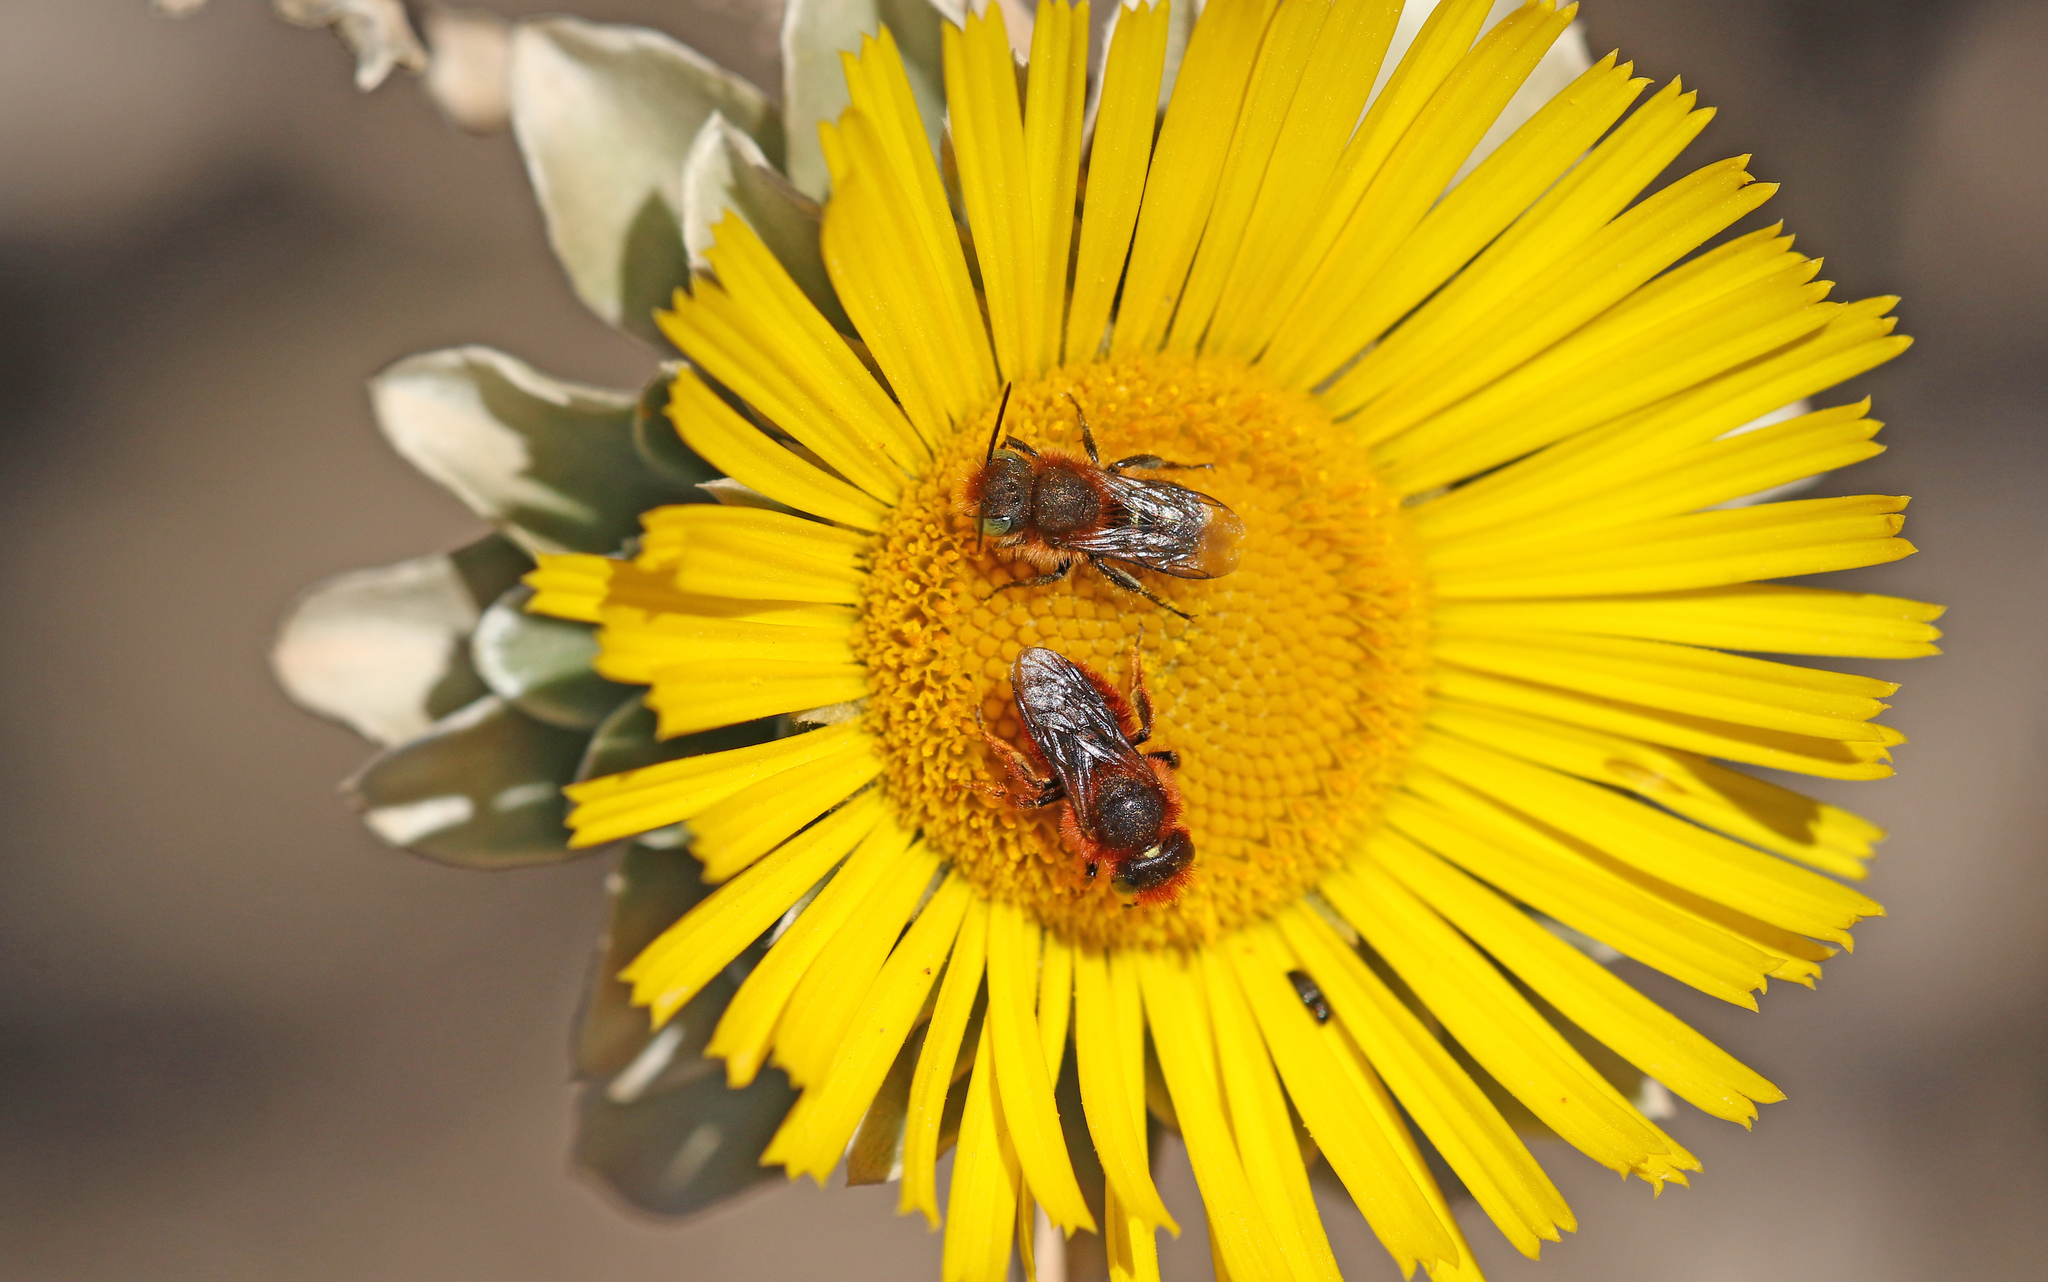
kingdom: Animalia
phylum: Arthropoda
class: Insecta
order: Hymenoptera
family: Megachilidae
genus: Osmia
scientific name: Osmia cinnabarina
